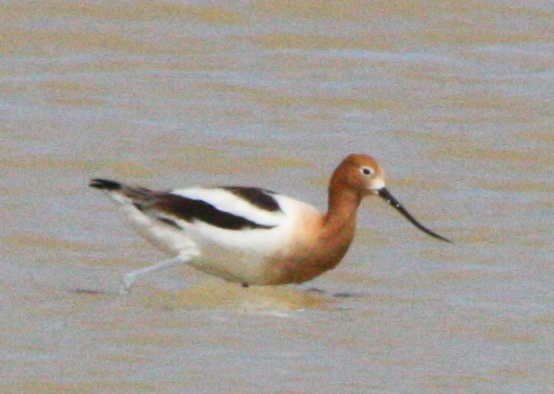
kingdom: Animalia
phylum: Chordata
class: Aves
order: Charadriiformes
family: Recurvirostridae
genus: Recurvirostra
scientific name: Recurvirostra americana
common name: American avocet
